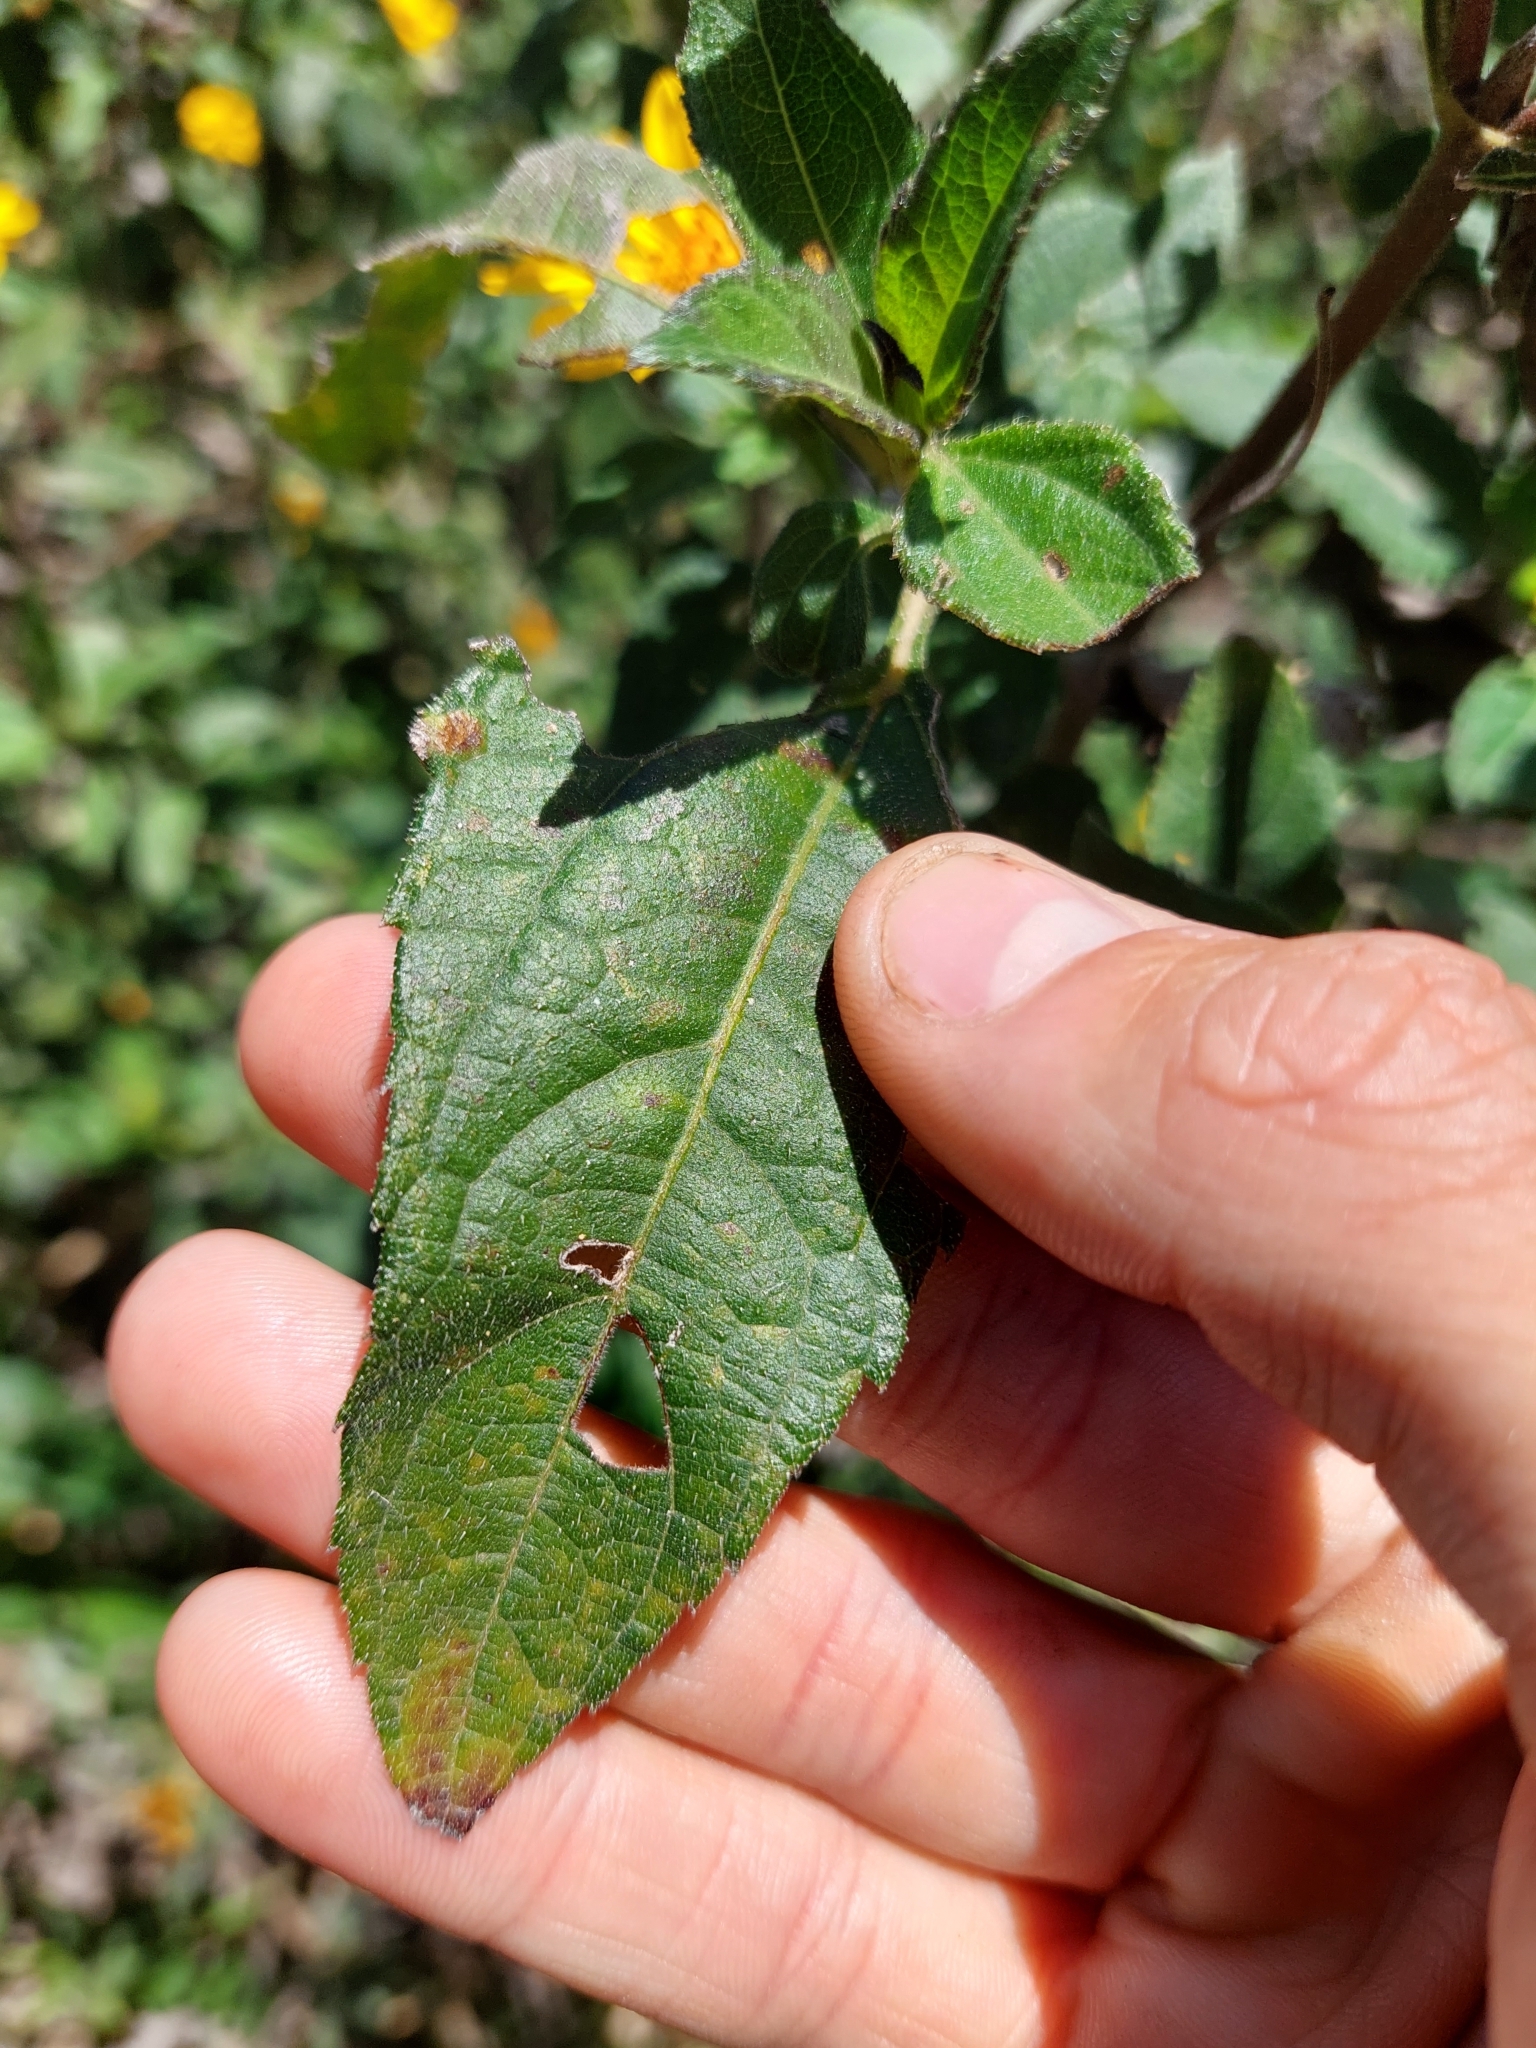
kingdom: Plantae
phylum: Tracheophyta
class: Magnoliopsida
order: Asterales
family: Asteraceae
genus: Wedelia
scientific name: Wedelia silphioides
